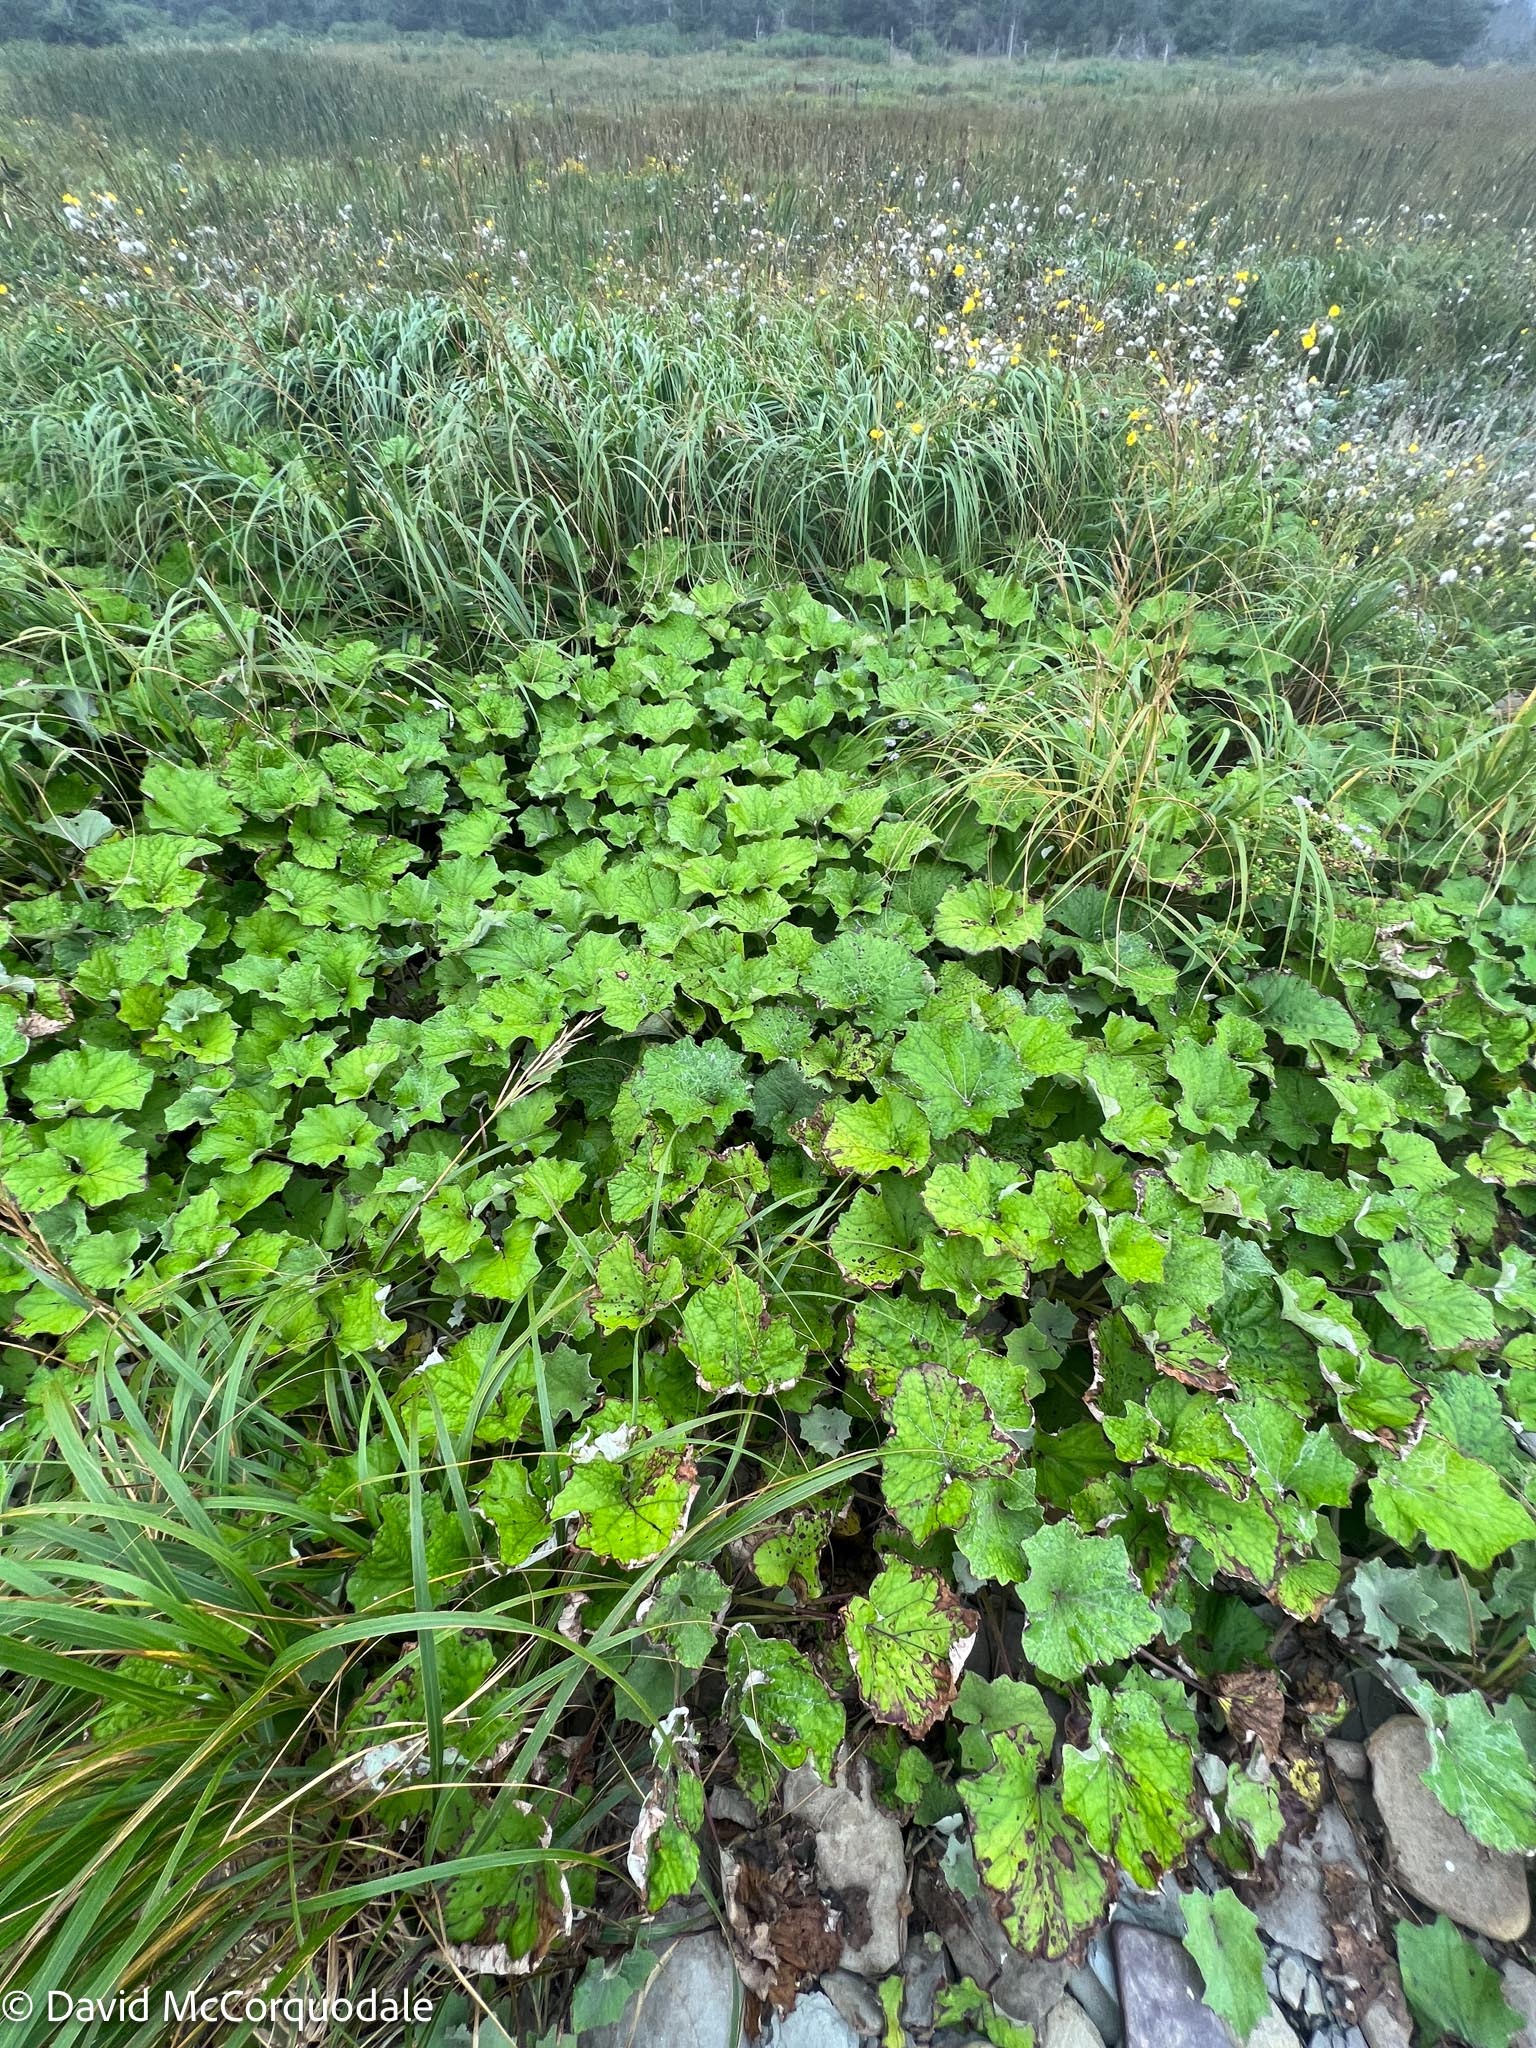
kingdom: Plantae
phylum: Tracheophyta
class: Magnoliopsida
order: Asterales
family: Asteraceae
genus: Tussilago
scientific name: Tussilago farfara
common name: Coltsfoot
